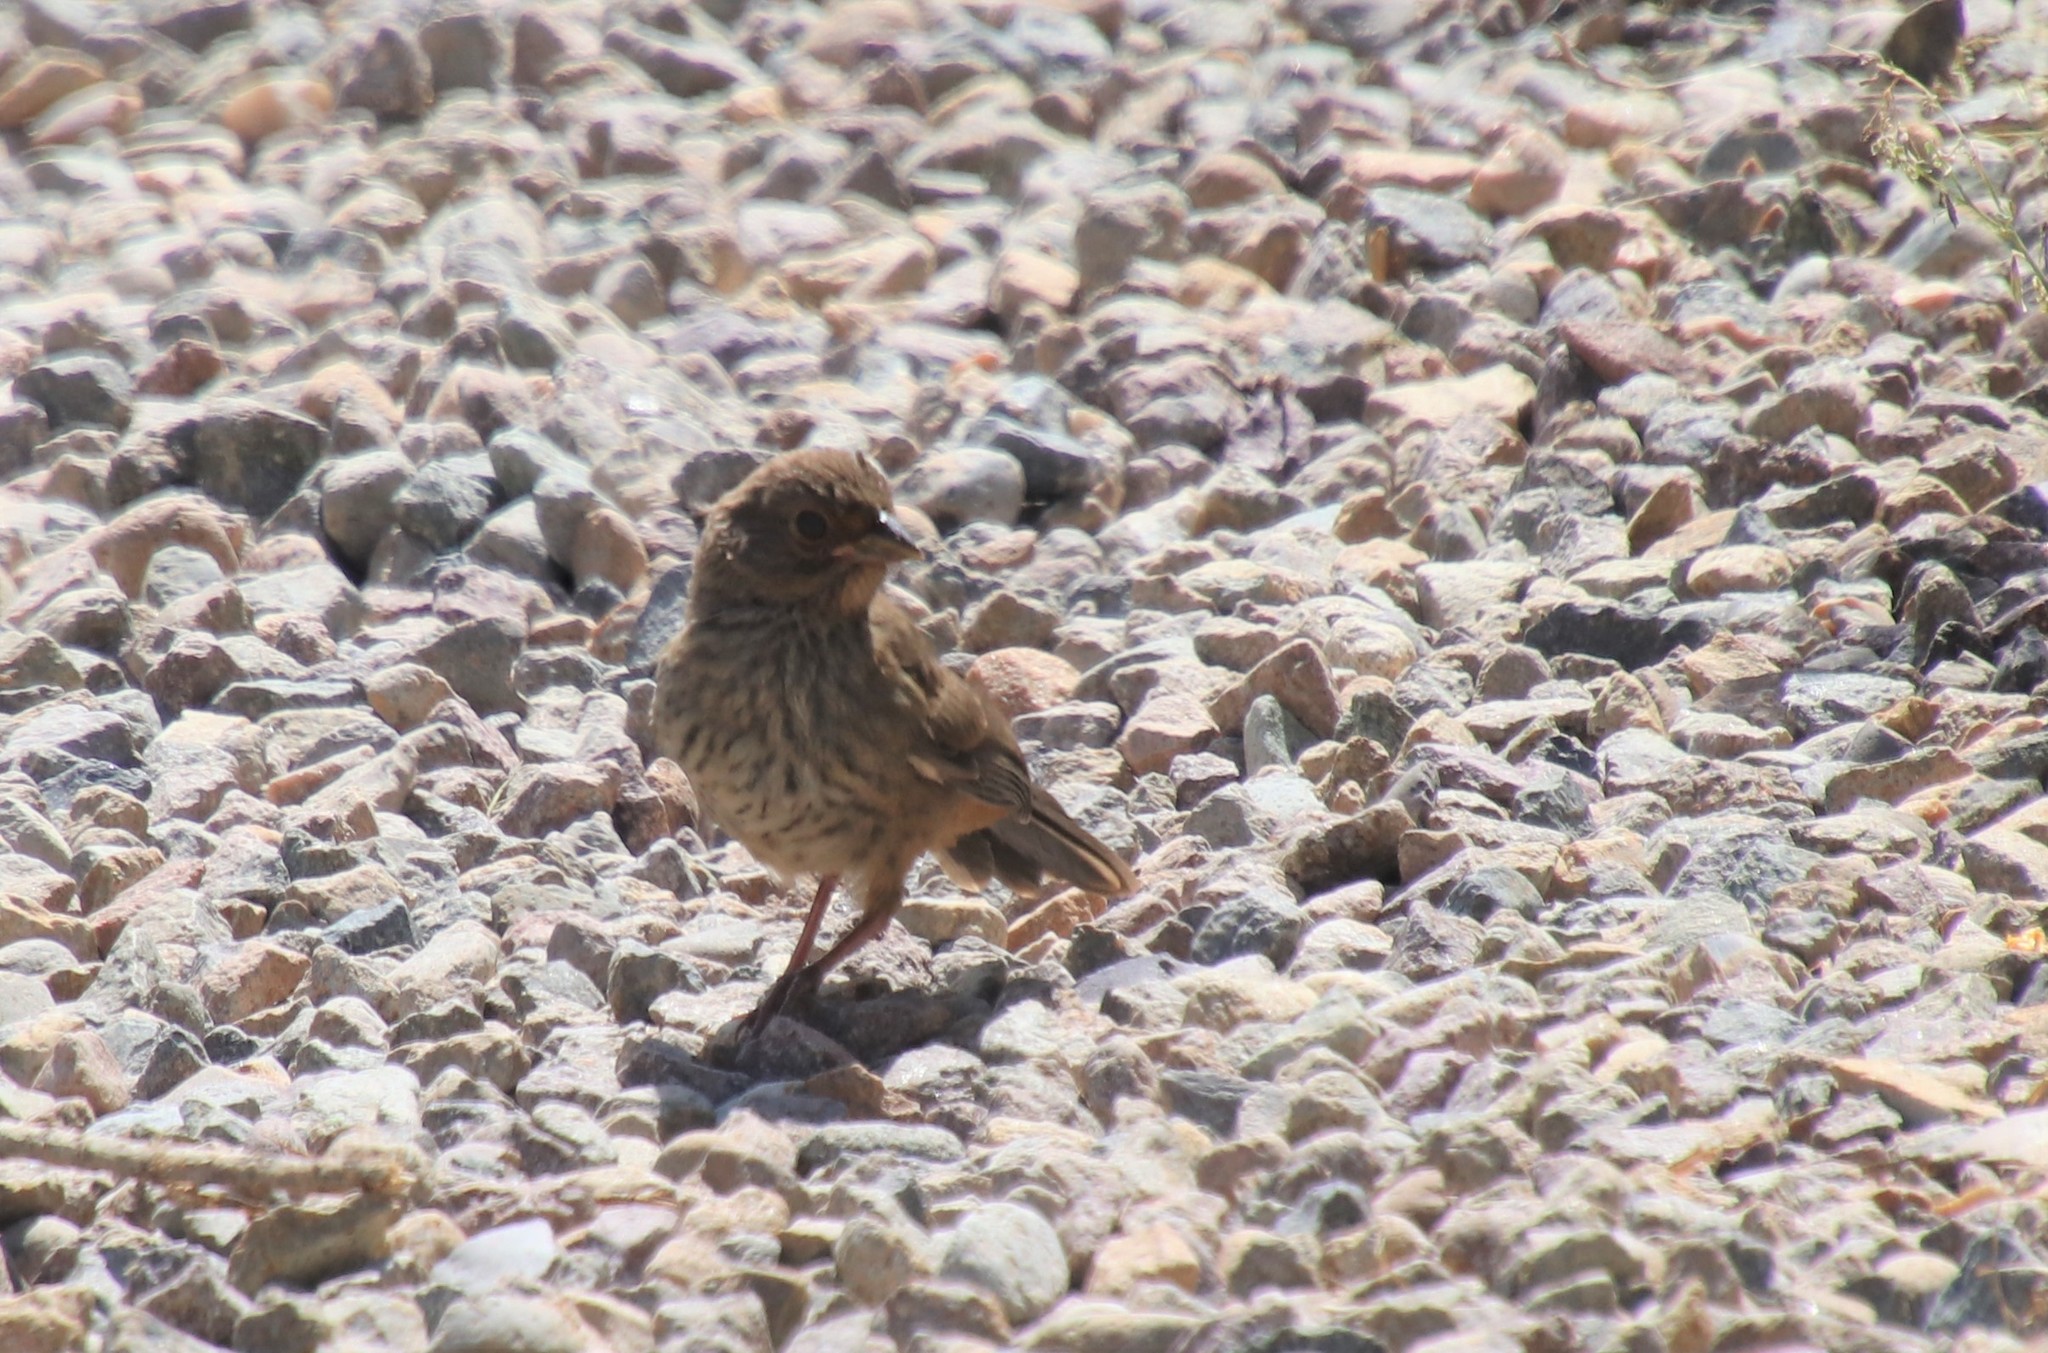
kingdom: Animalia
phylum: Chordata
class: Aves
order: Passeriformes
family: Passerellidae
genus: Melozone
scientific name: Melozone crissalis
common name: California towhee
